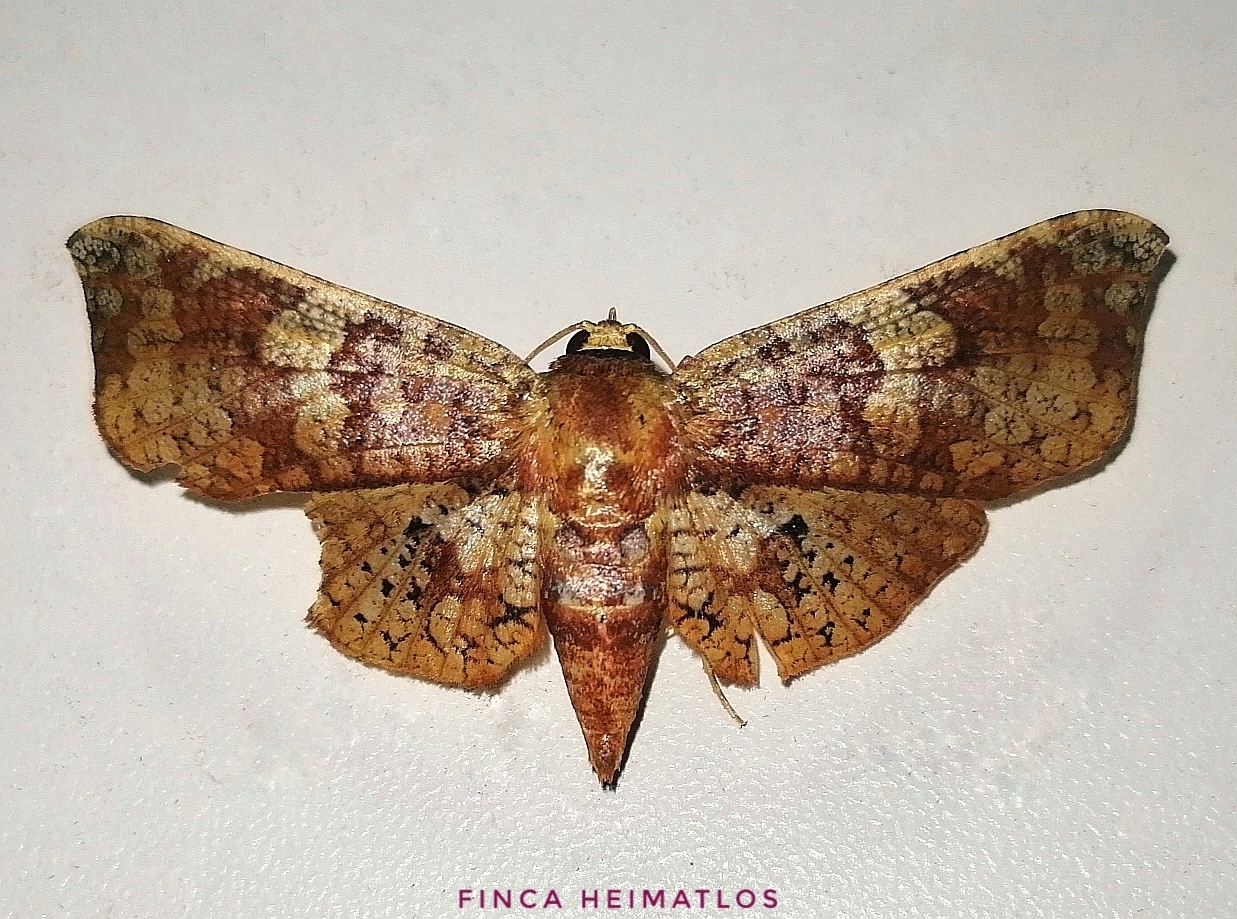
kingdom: Animalia
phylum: Arthropoda
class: Insecta
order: Lepidoptera
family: Thyrididae
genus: Rhodoneura
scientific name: Rhodoneura nebulosa
